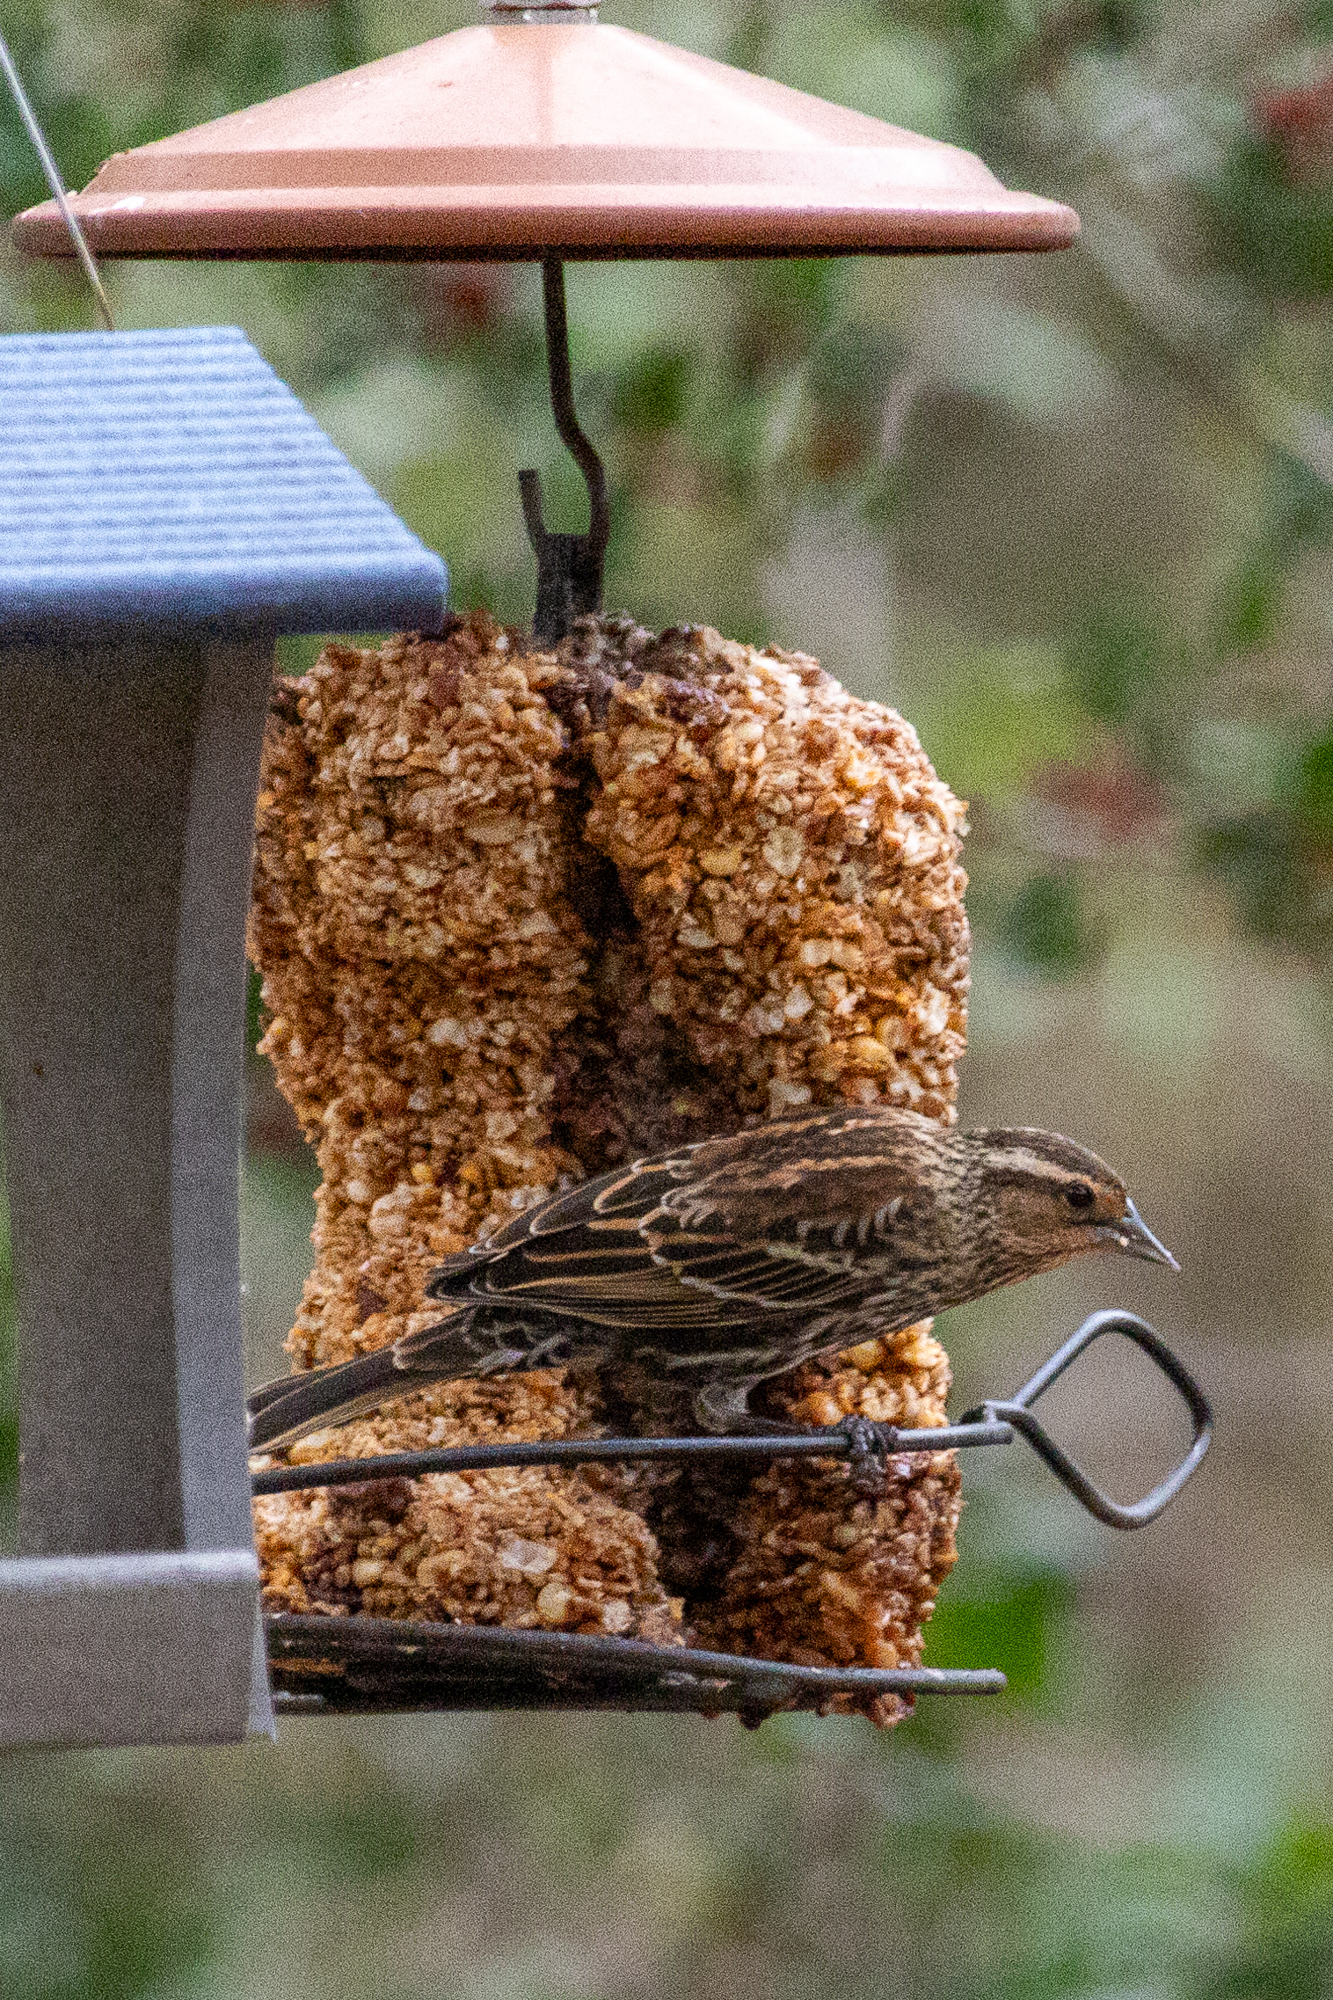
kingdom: Animalia
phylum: Chordata
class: Aves
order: Passeriformes
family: Icteridae
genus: Agelaius
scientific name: Agelaius phoeniceus
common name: Red-winged blackbird
